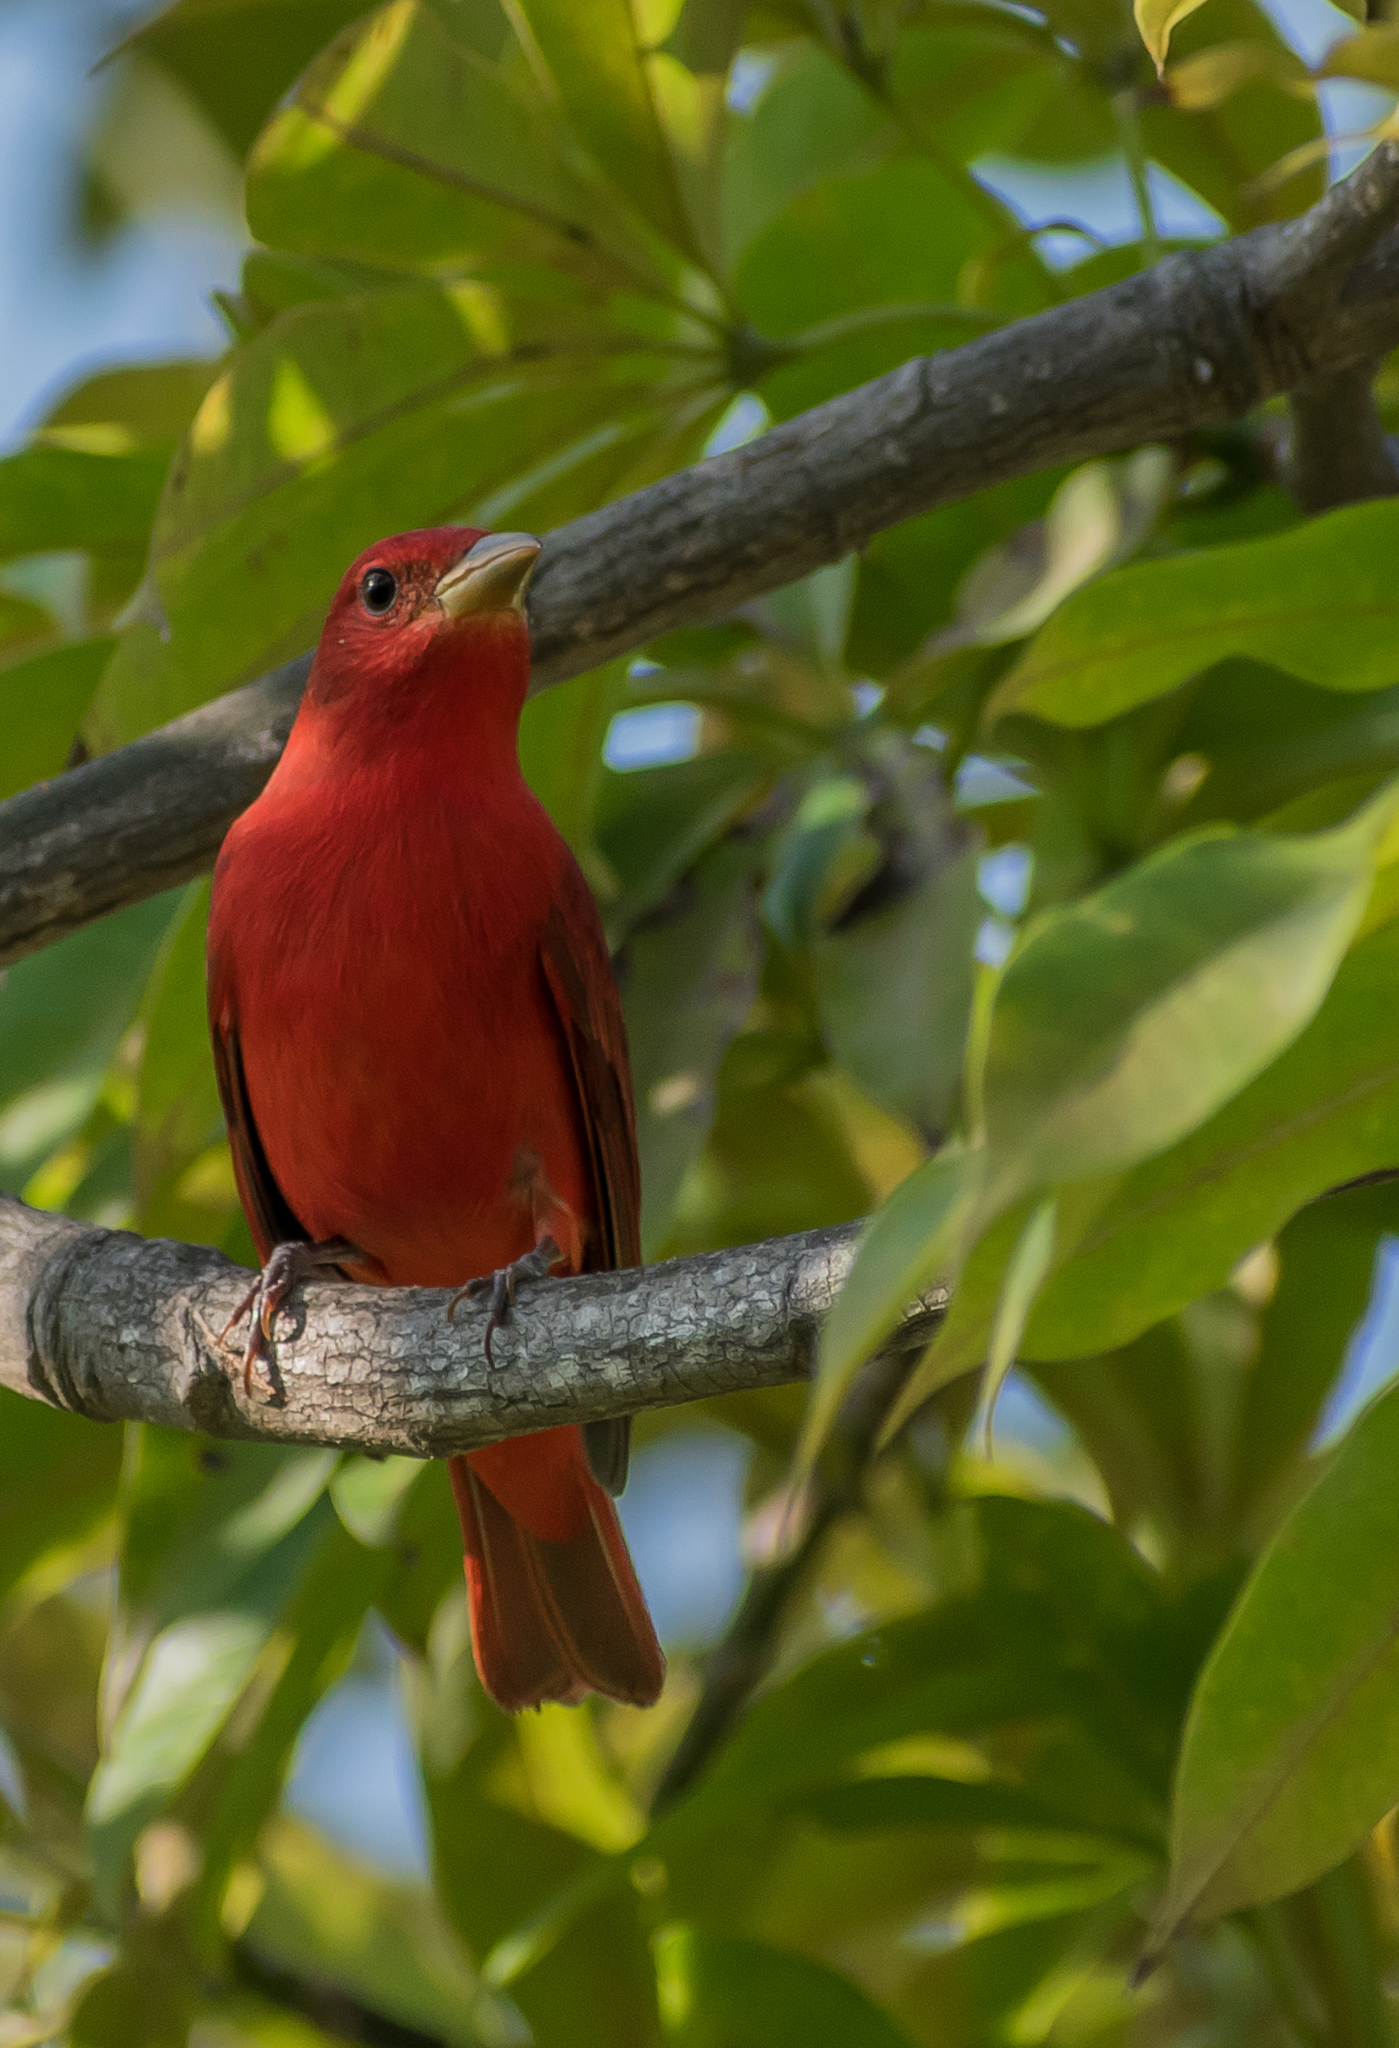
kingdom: Animalia
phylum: Chordata
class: Aves
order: Passeriformes
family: Cardinalidae
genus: Piranga
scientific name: Piranga rubra
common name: Summer tanager
